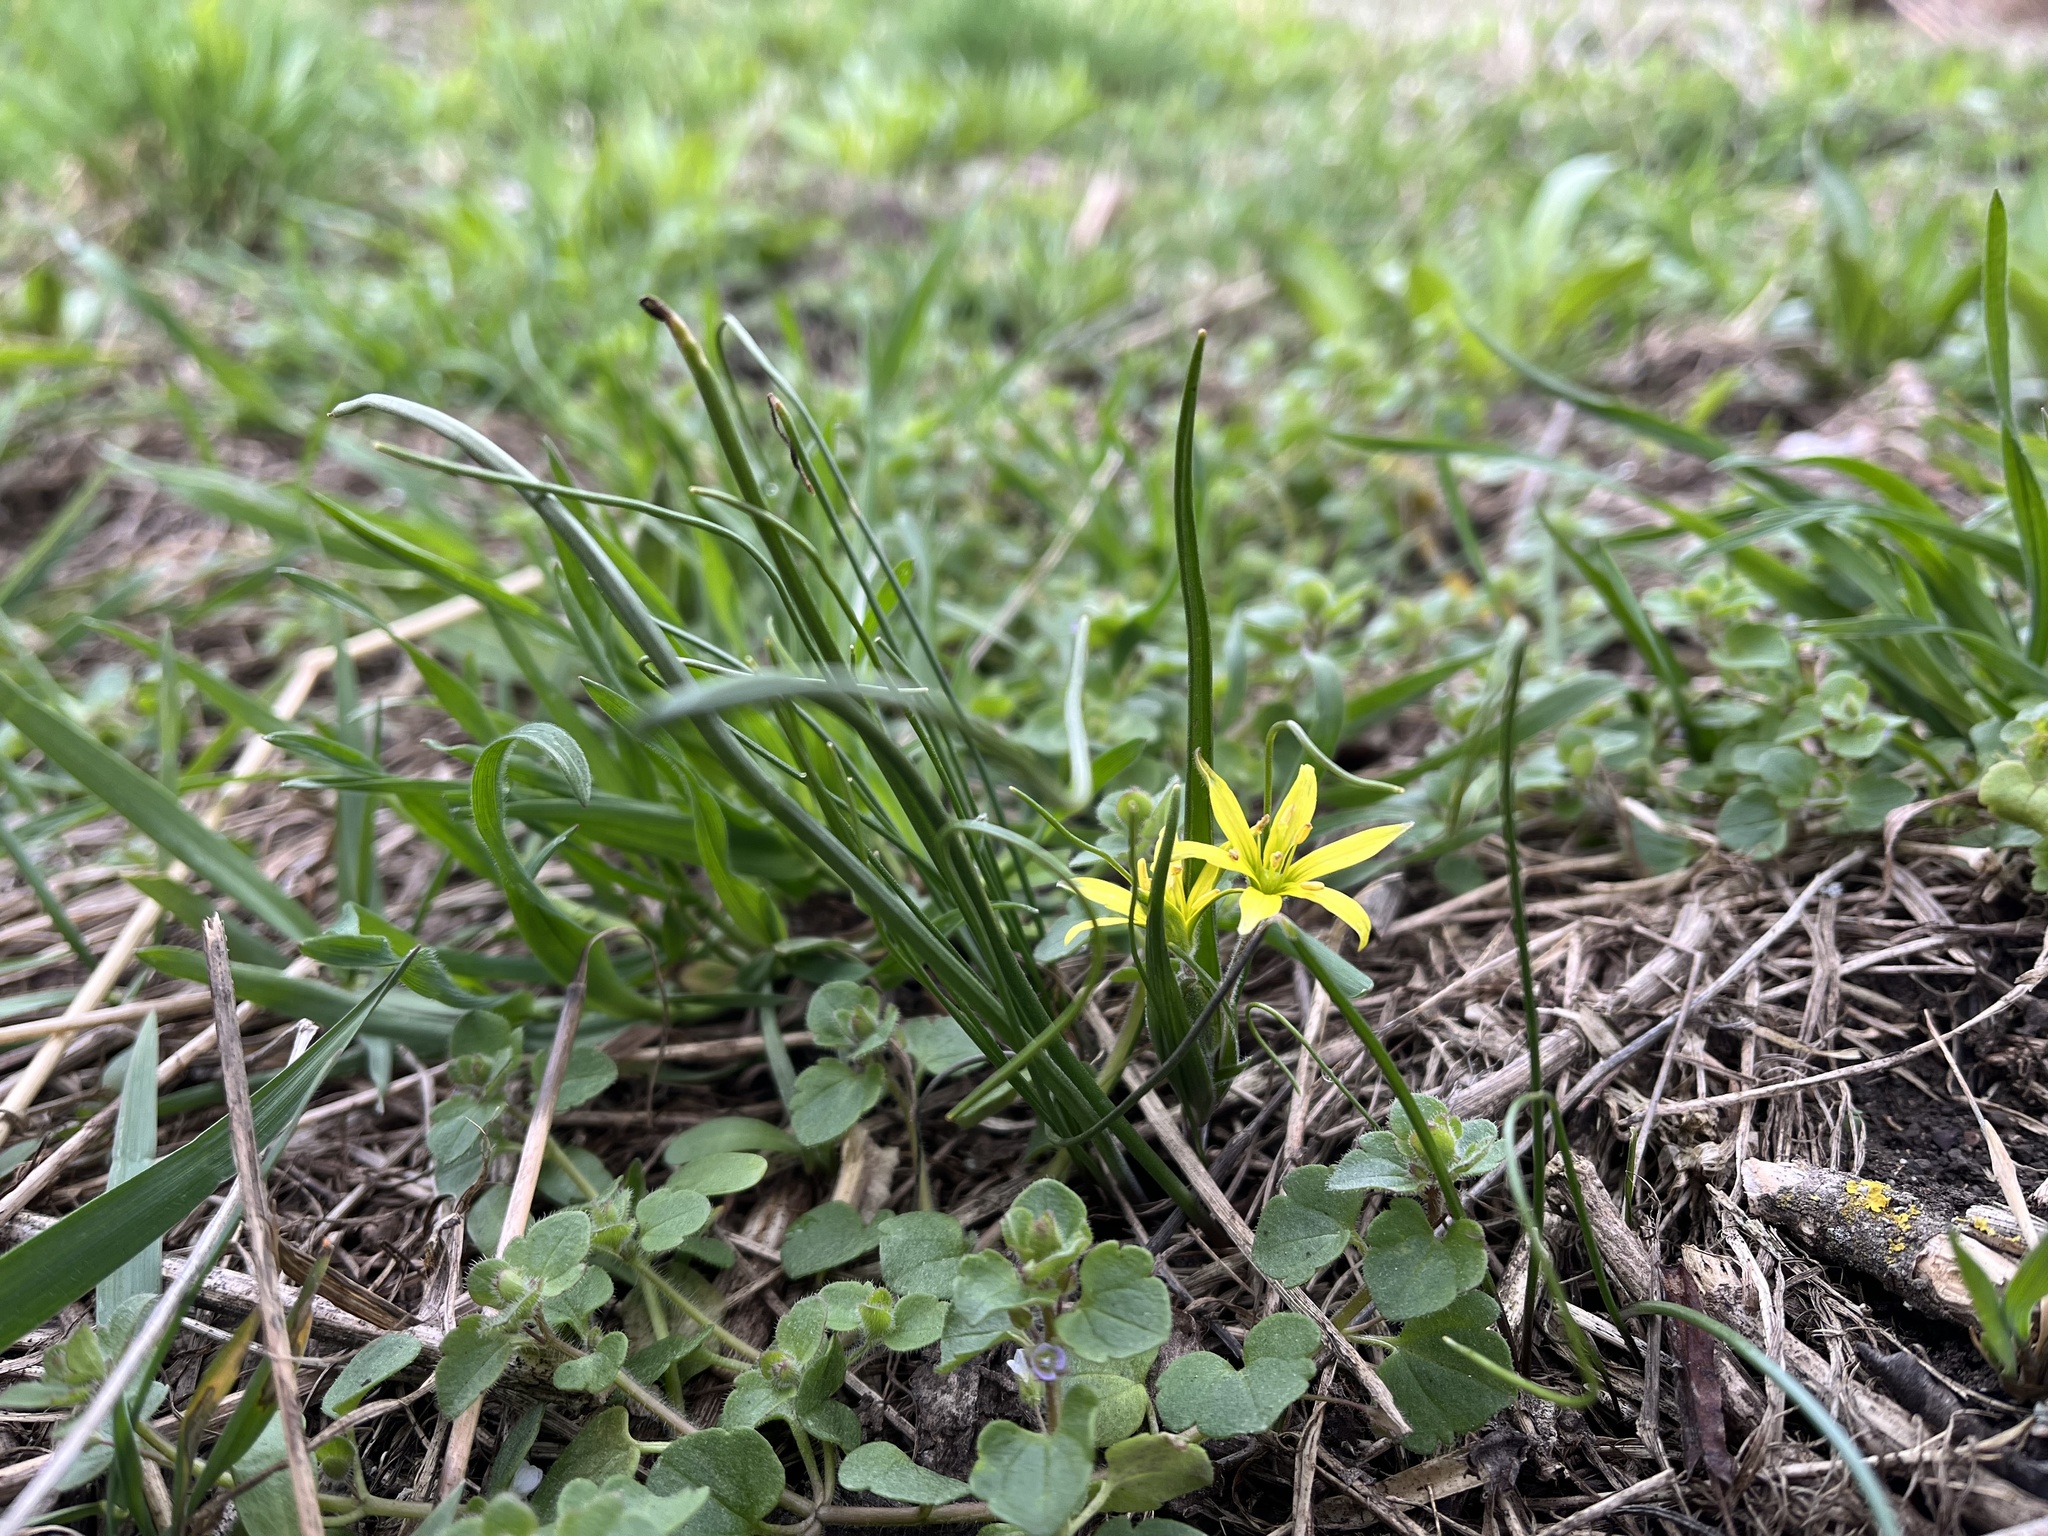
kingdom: Plantae
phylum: Tracheophyta
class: Liliopsida
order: Liliales
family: Liliaceae
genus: Gagea
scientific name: Gagea villosa
